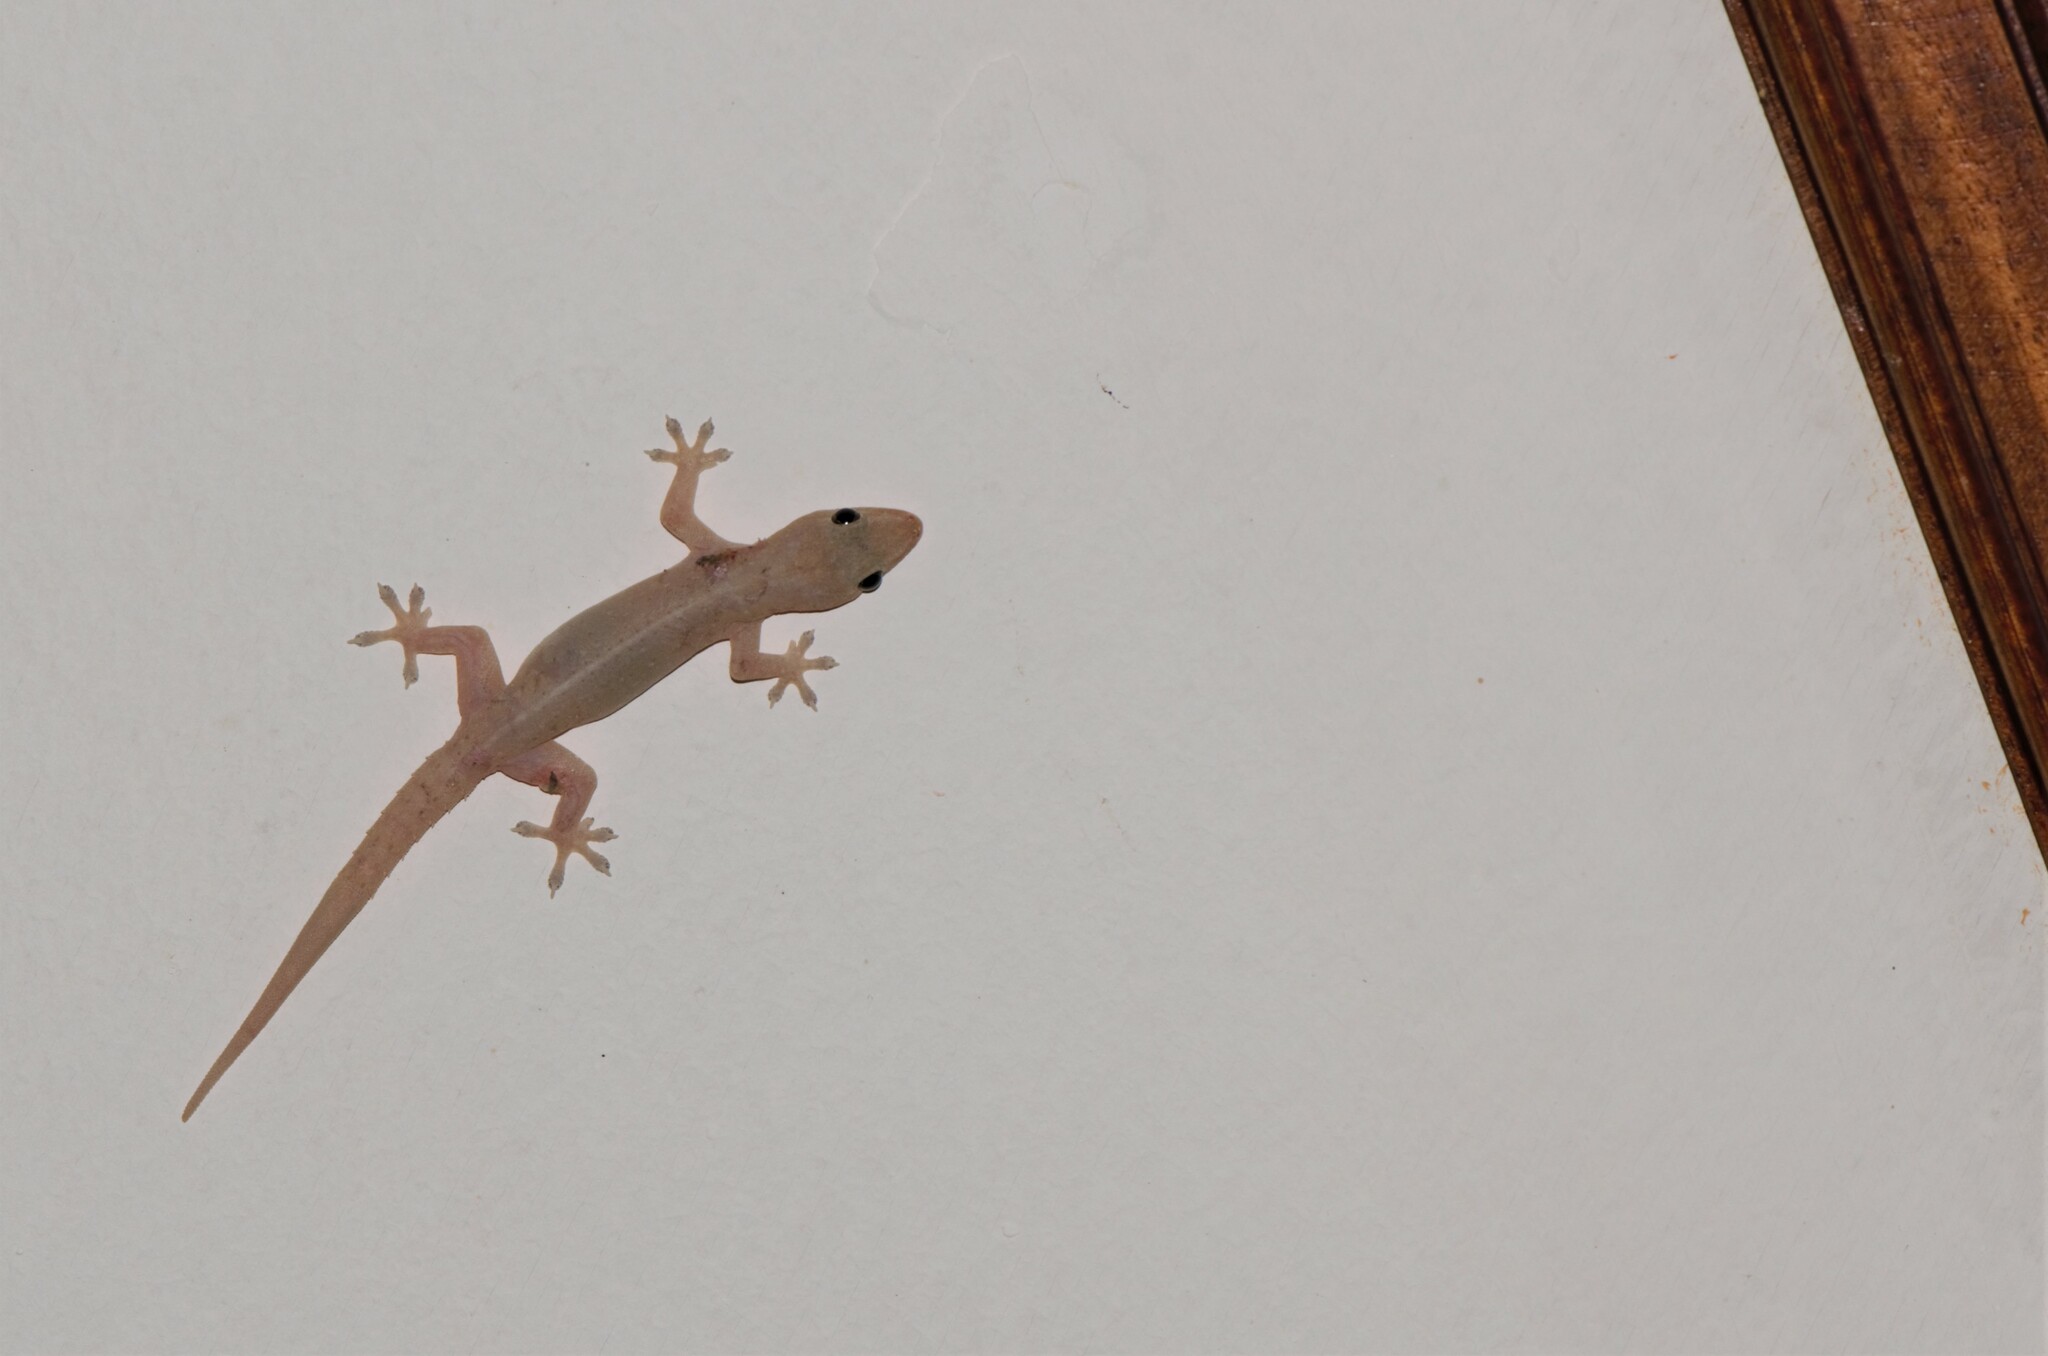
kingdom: Animalia
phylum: Chordata
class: Squamata
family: Gekkonidae
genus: Hemidactylus
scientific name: Hemidactylus frenatus
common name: Common house gecko
